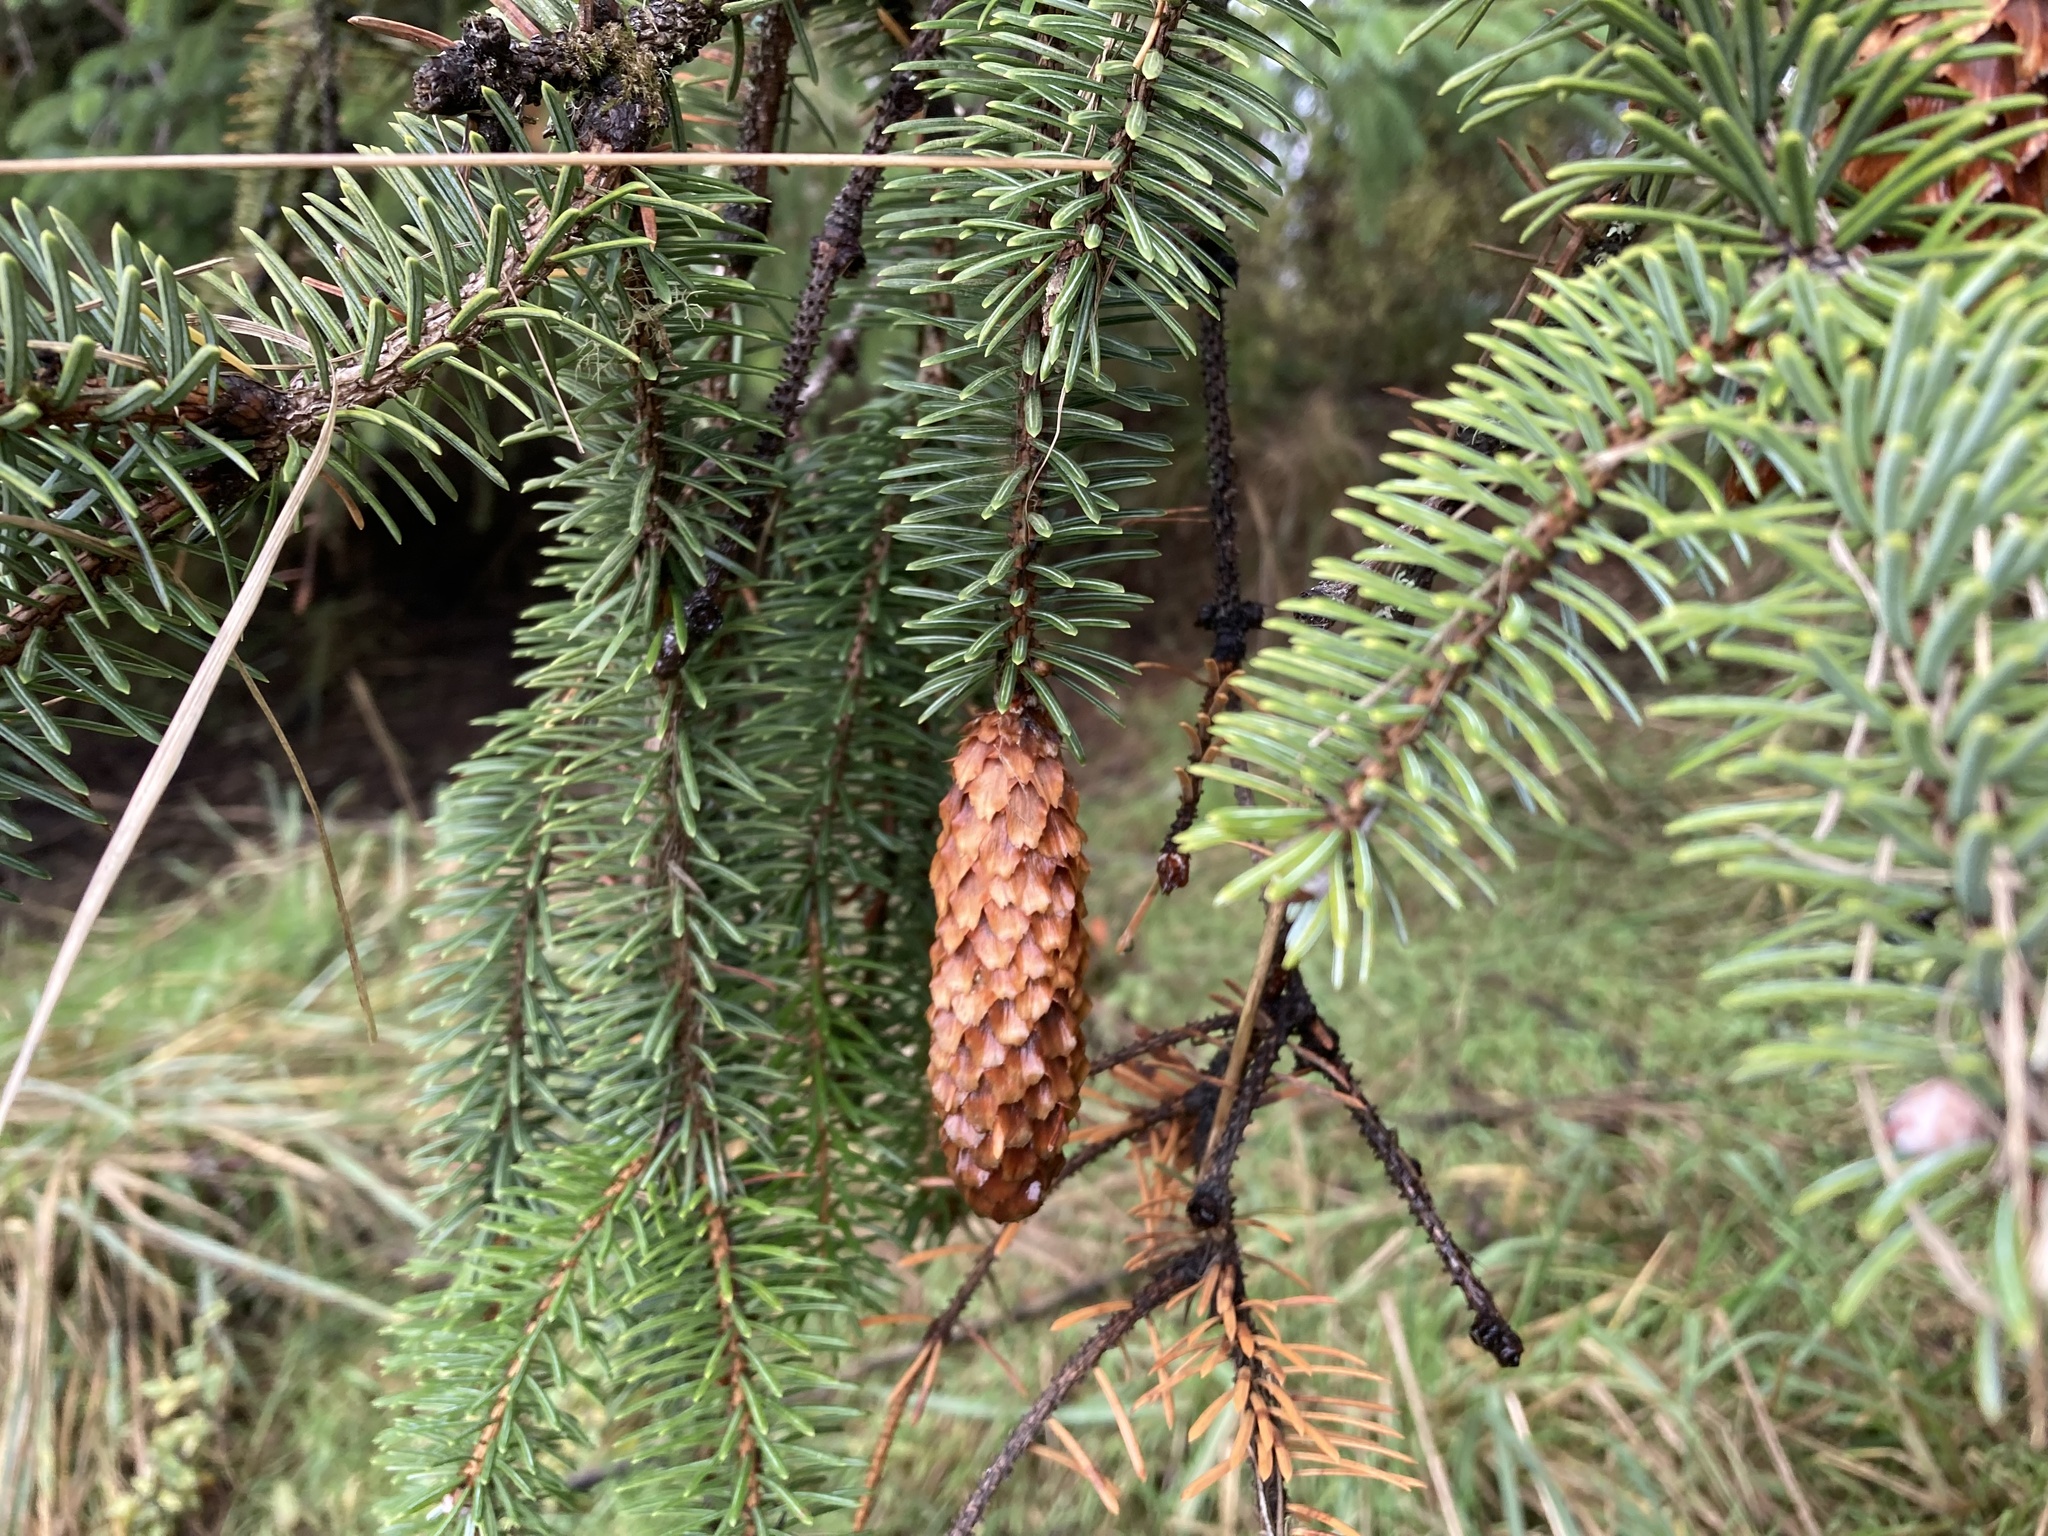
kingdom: Plantae
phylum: Tracheophyta
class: Pinopsida
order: Pinales
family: Pinaceae
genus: Picea
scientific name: Picea sitchensis
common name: Sitka spruce
